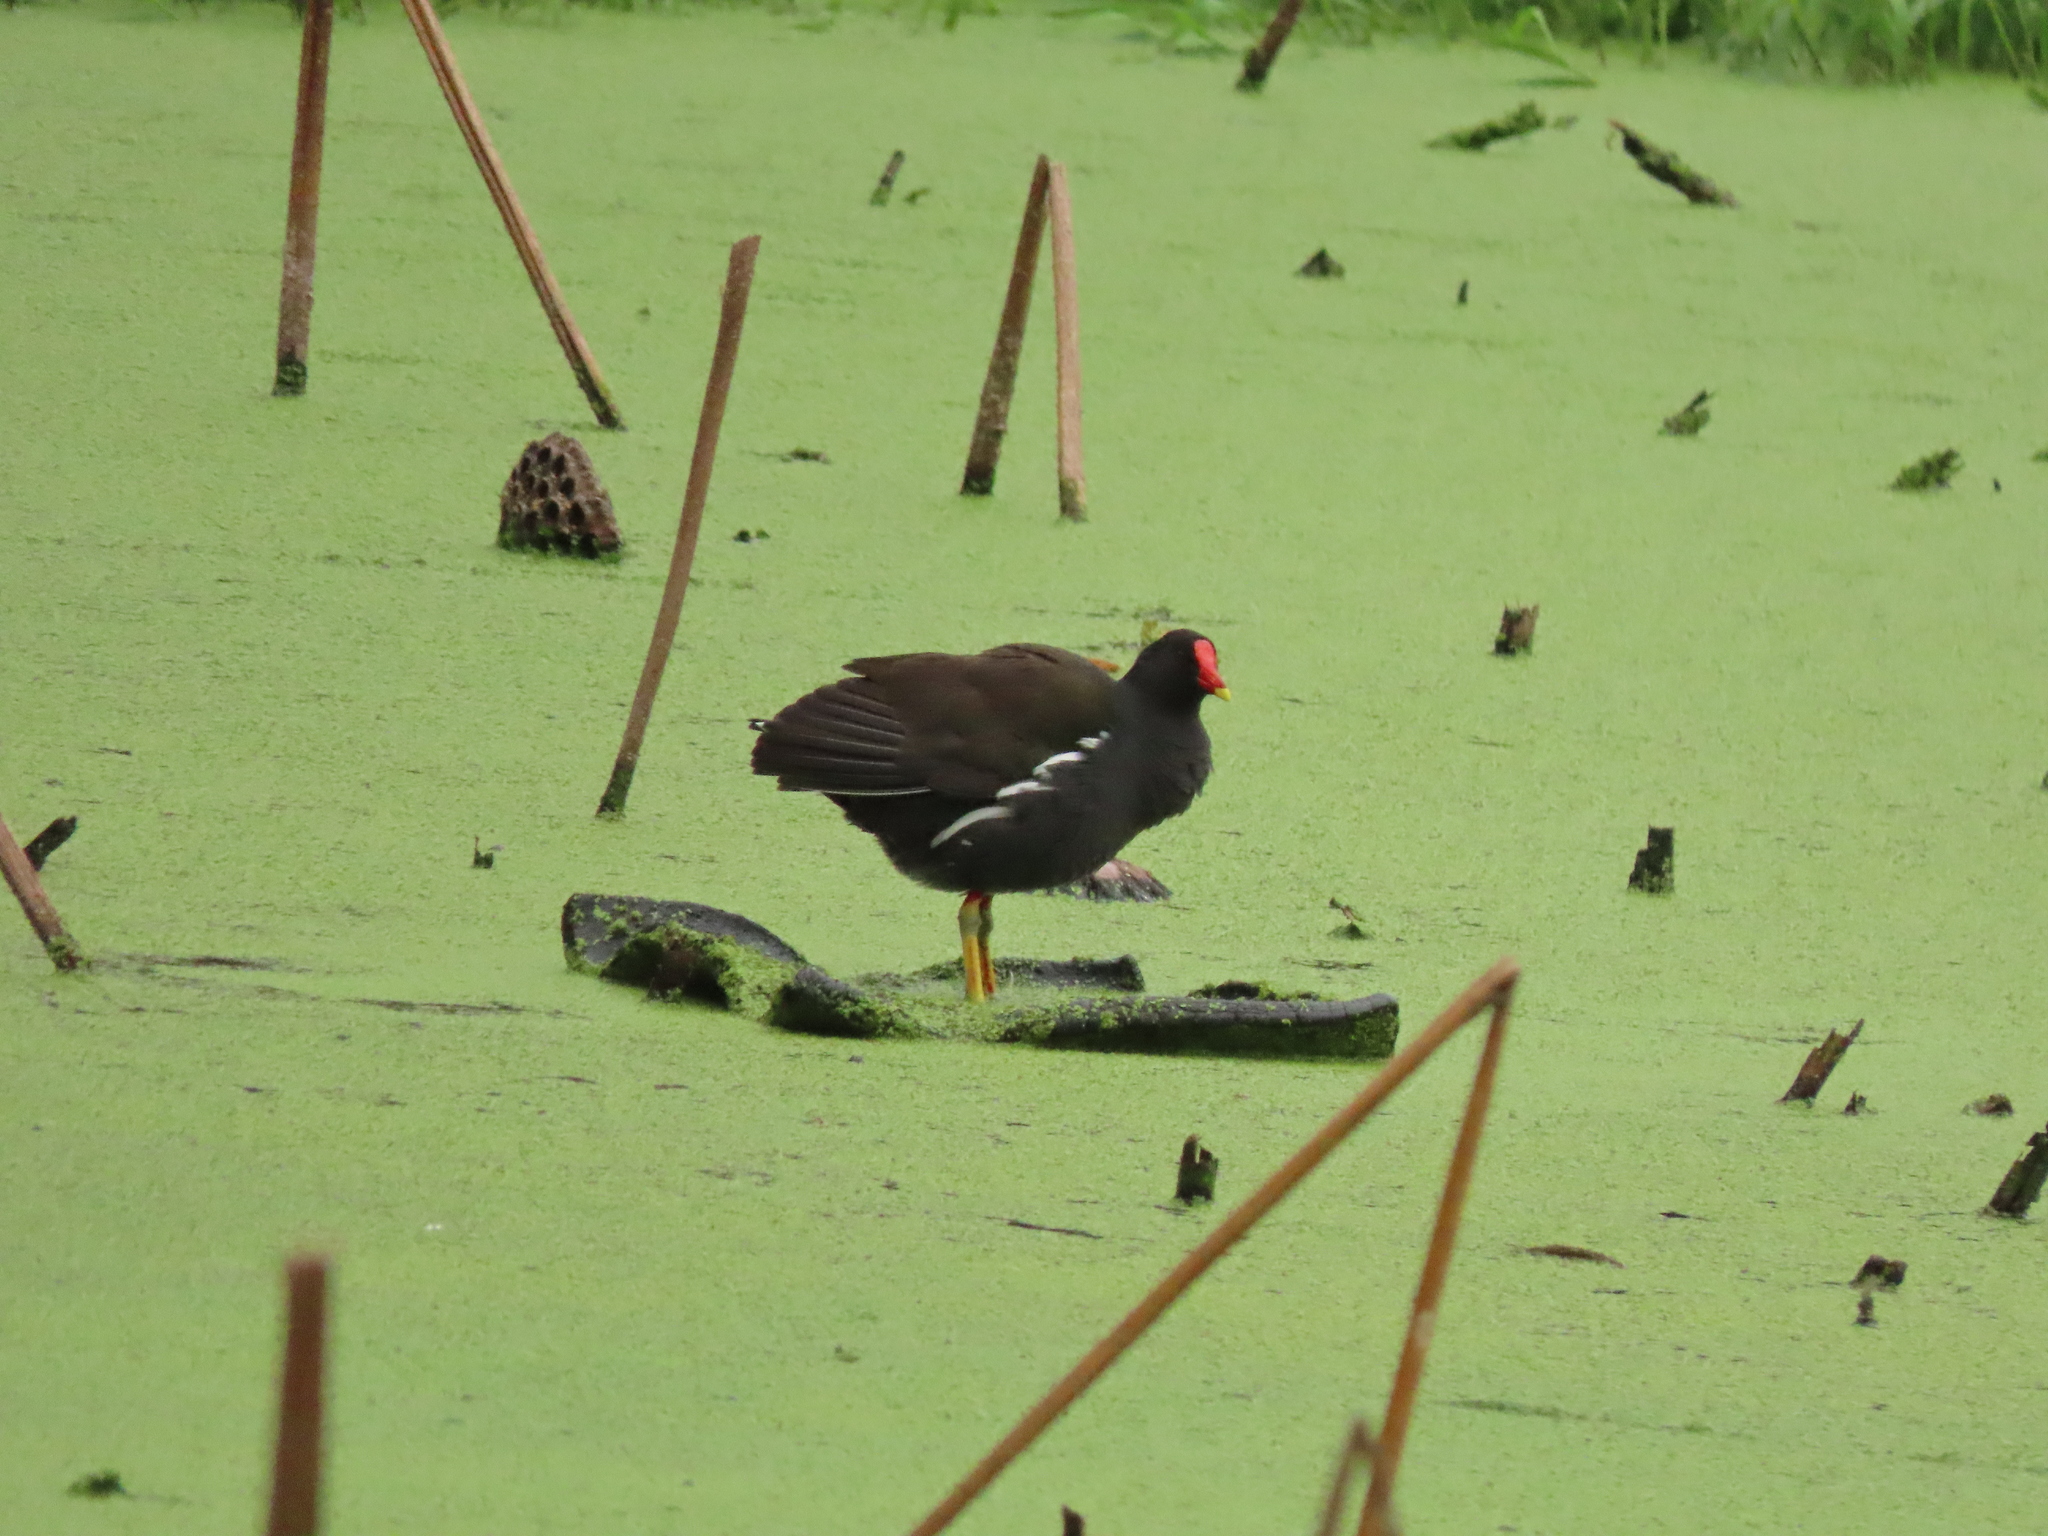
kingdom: Animalia
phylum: Chordata
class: Aves
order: Gruiformes
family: Rallidae
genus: Gallinula
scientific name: Gallinula chloropus
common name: Common moorhen
